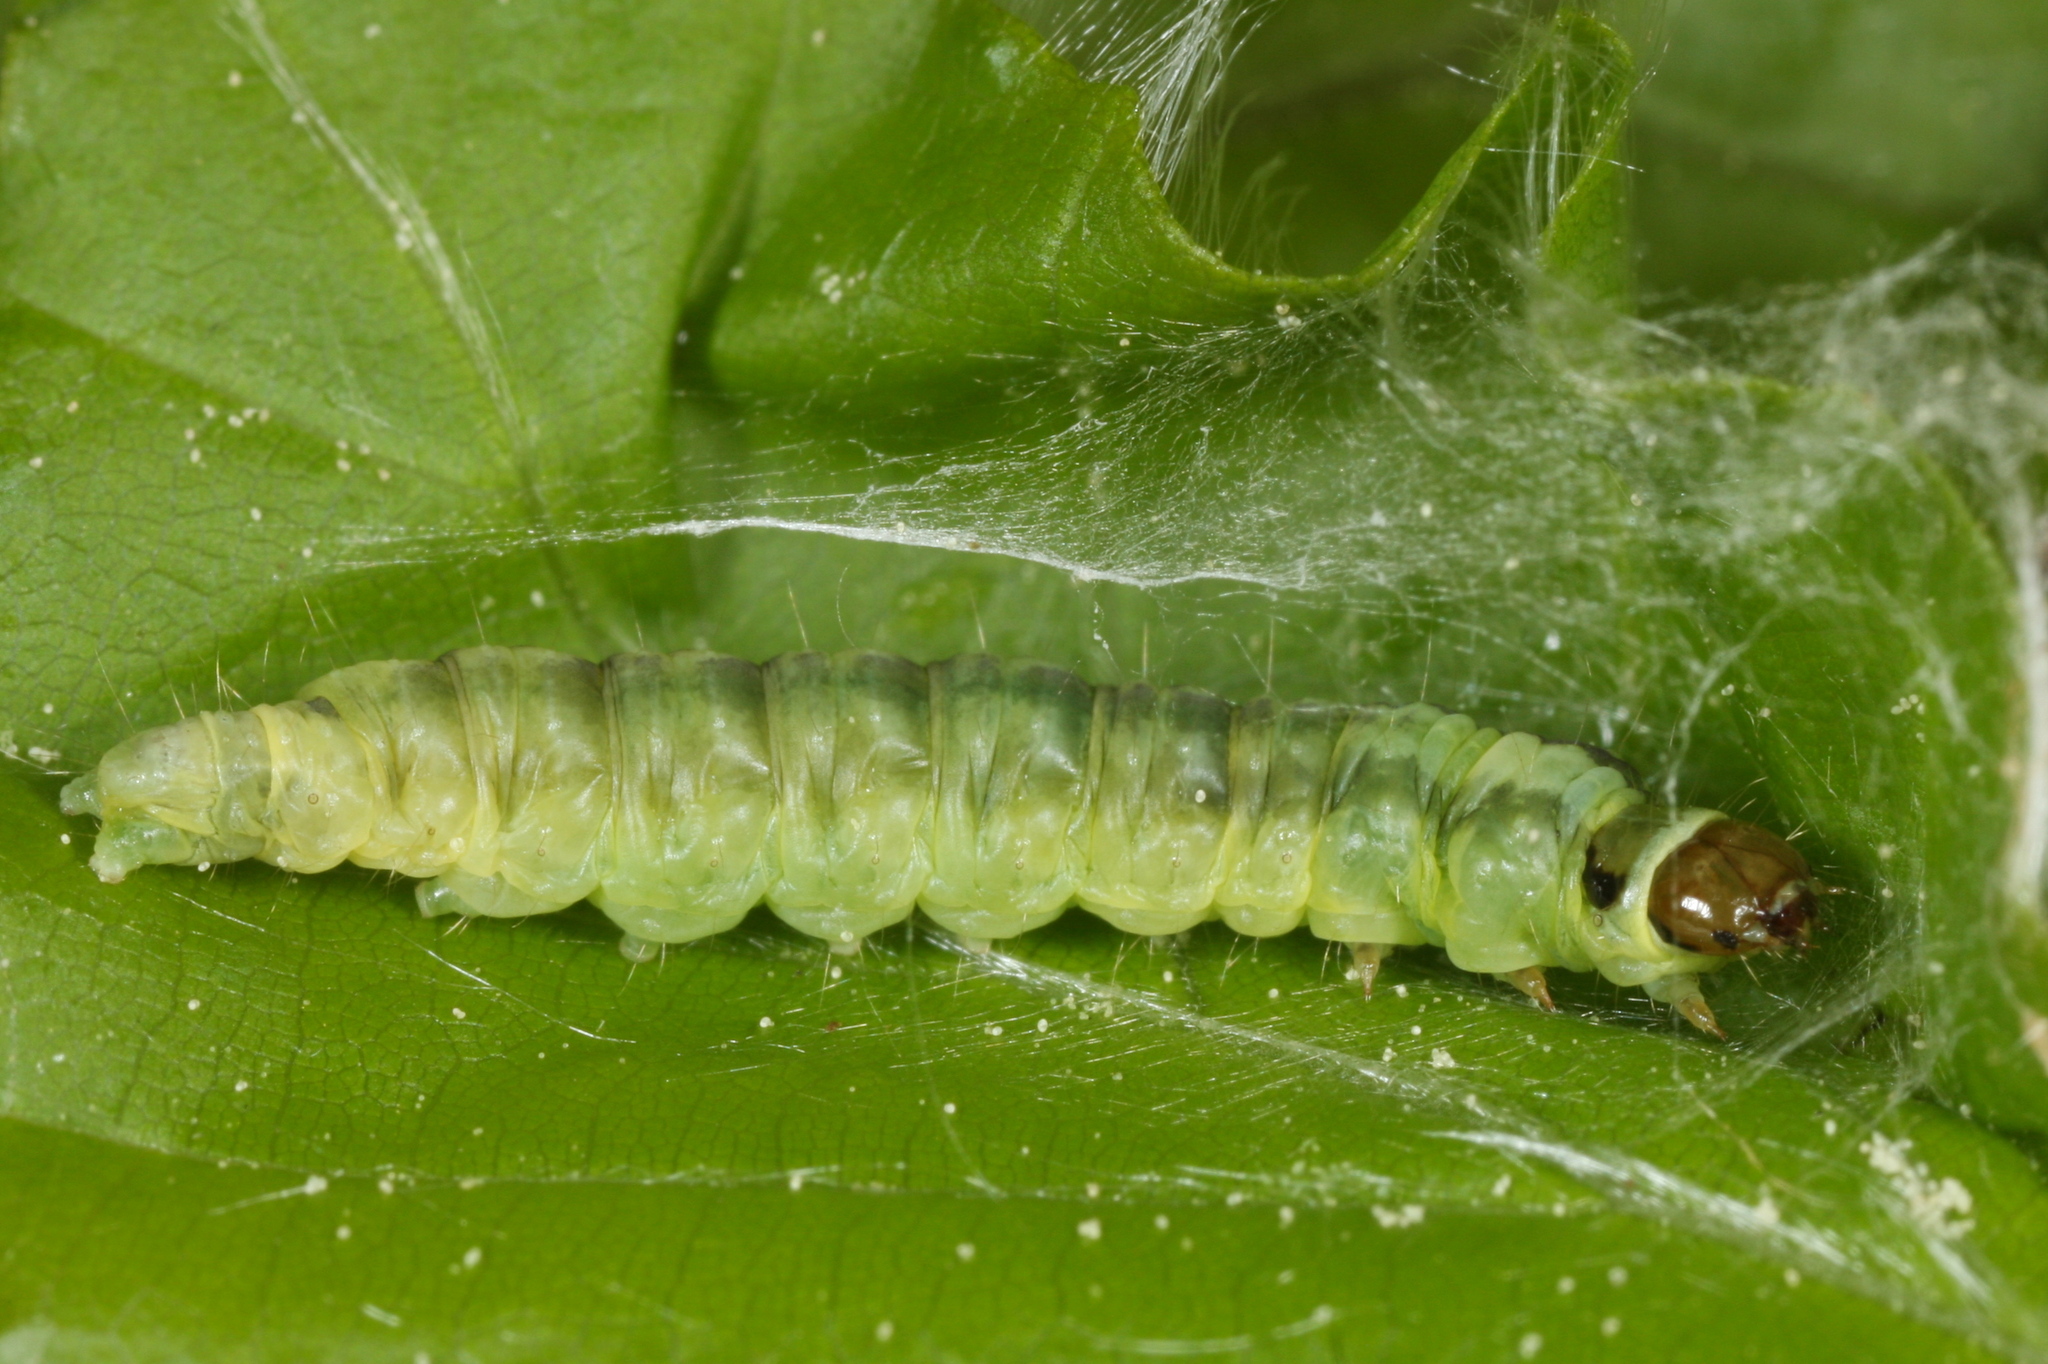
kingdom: Animalia
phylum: Arthropoda
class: Insecta
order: Lepidoptera
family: Tortricidae
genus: Ptycholoma
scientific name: Ptycholoma lecheana
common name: Leches twist moth
